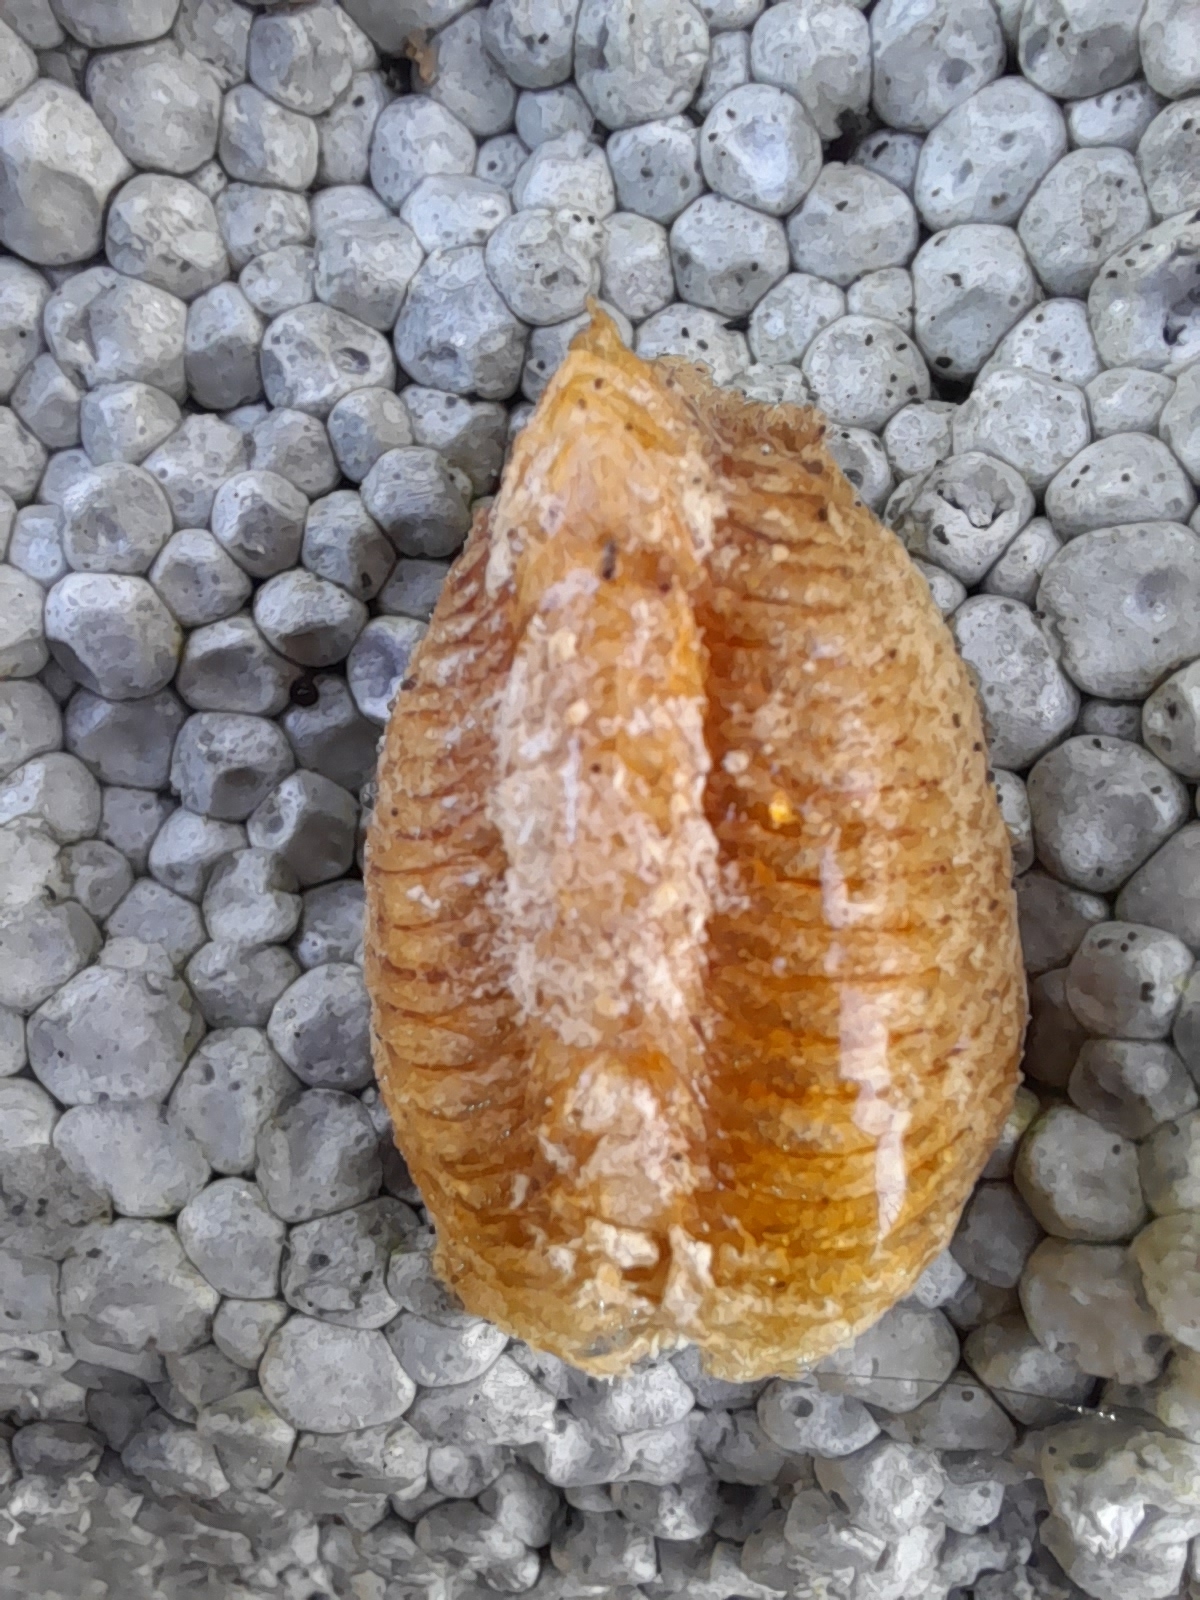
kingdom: Animalia
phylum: Arthropoda
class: Insecta
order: Mantodea
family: Mantidae
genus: Mantis
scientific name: Mantis religiosa
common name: Praying mantis
